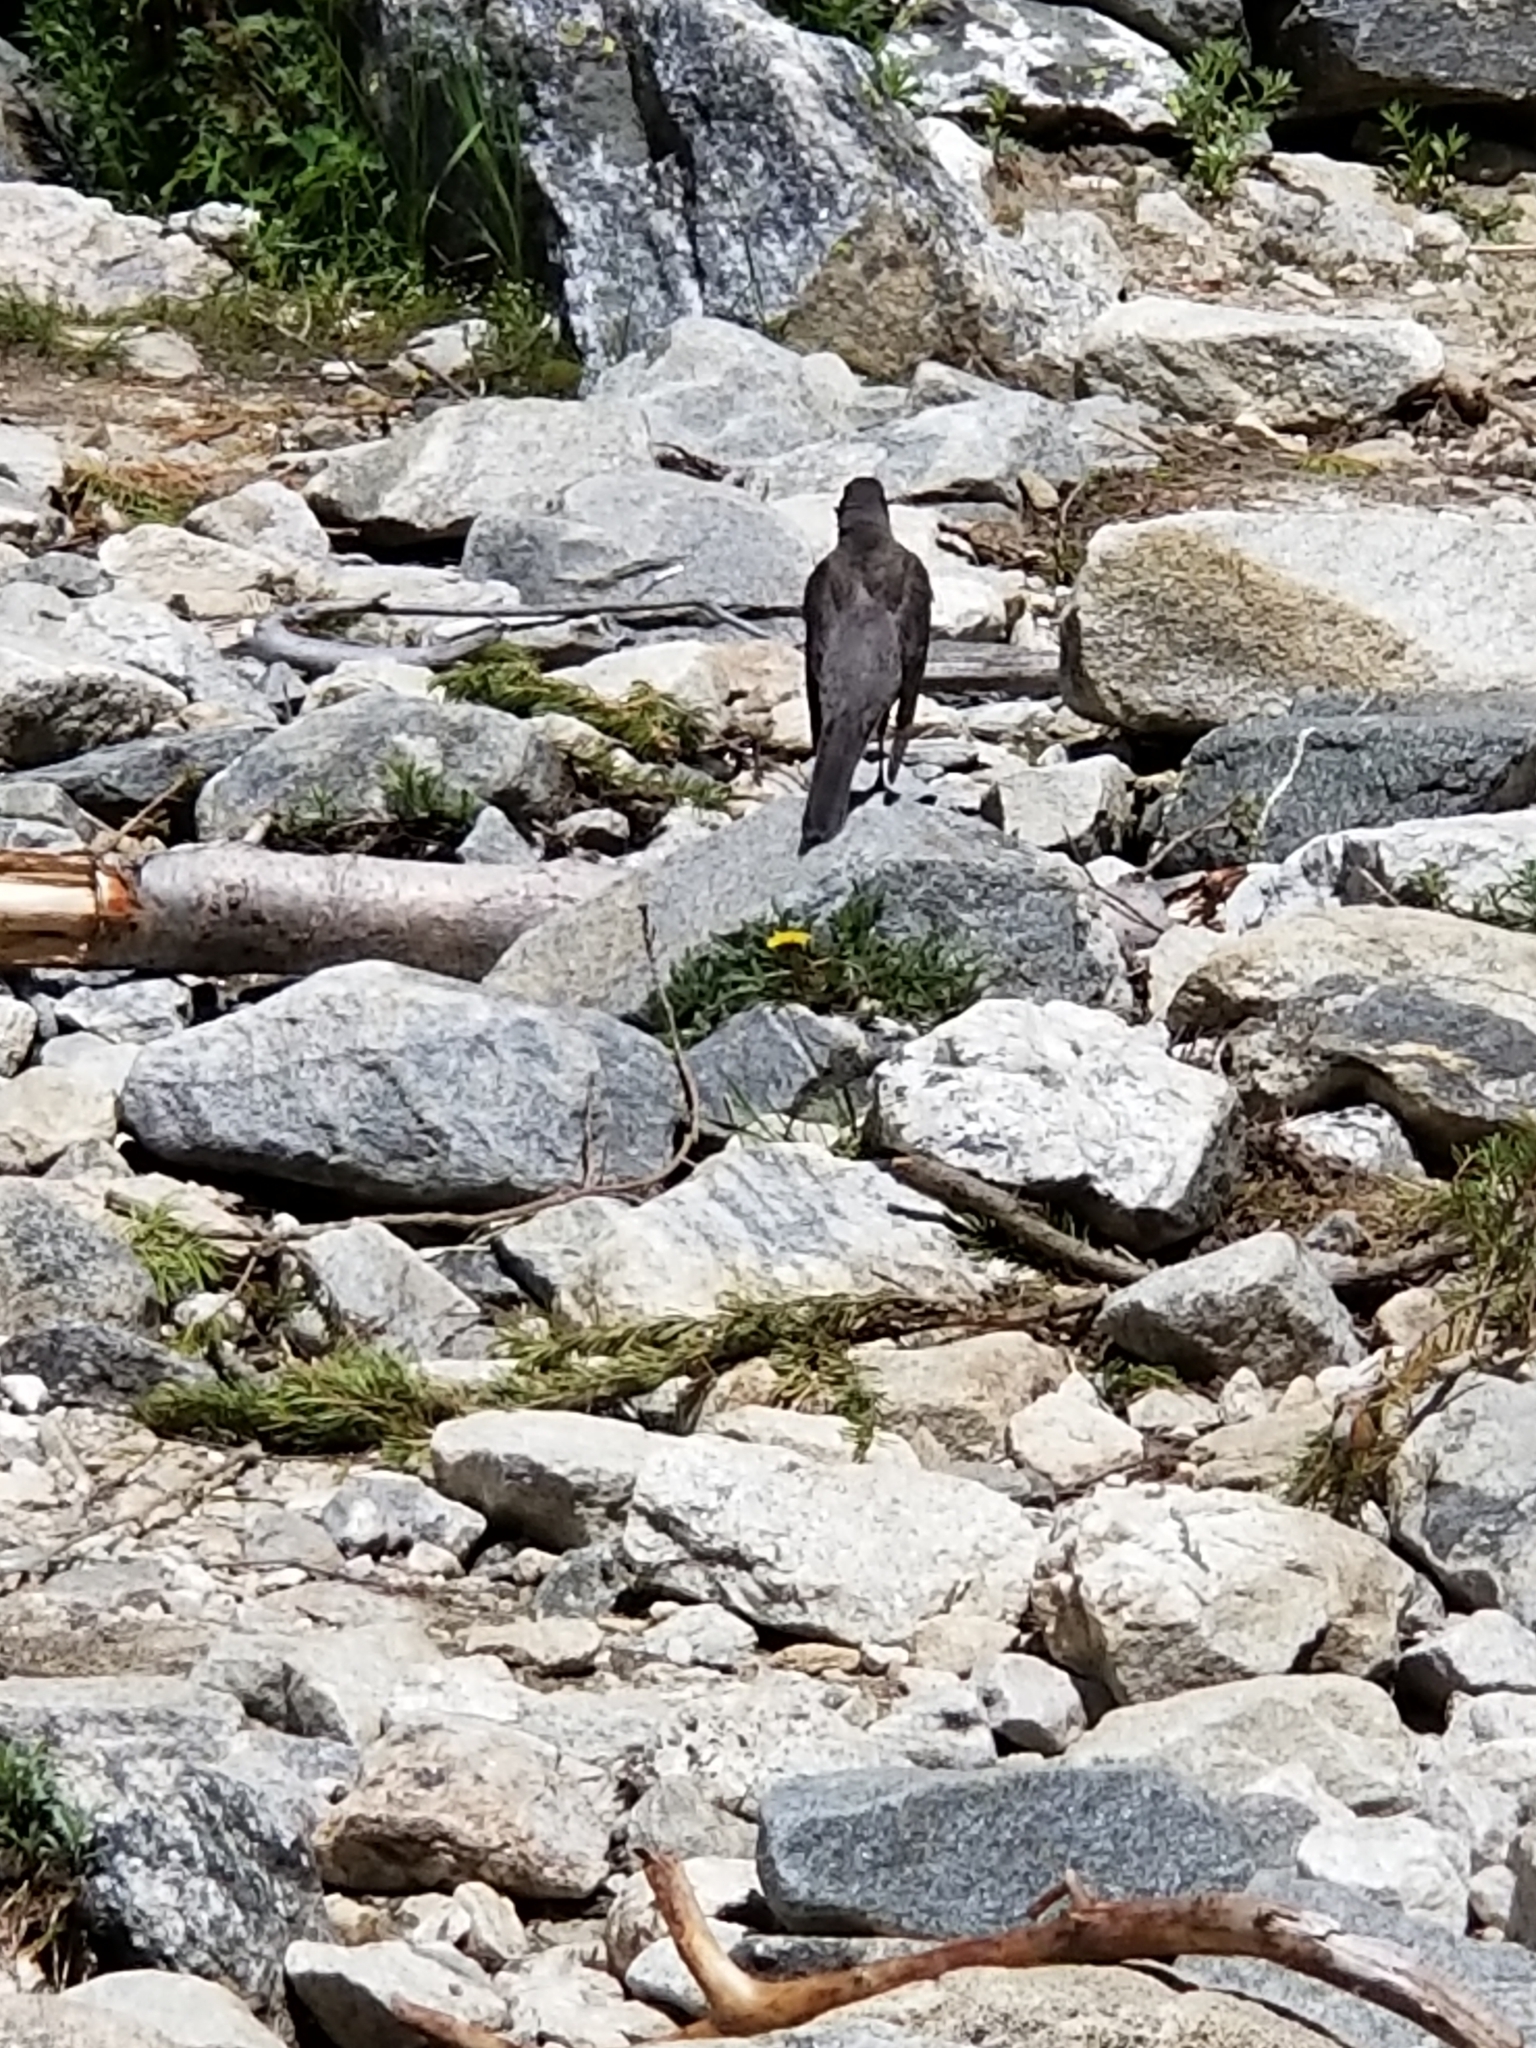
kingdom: Animalia
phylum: Chordata
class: Aves
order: Passeriformes
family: Turdidae
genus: Turdus
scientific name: Turdus migratorius
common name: American robin
